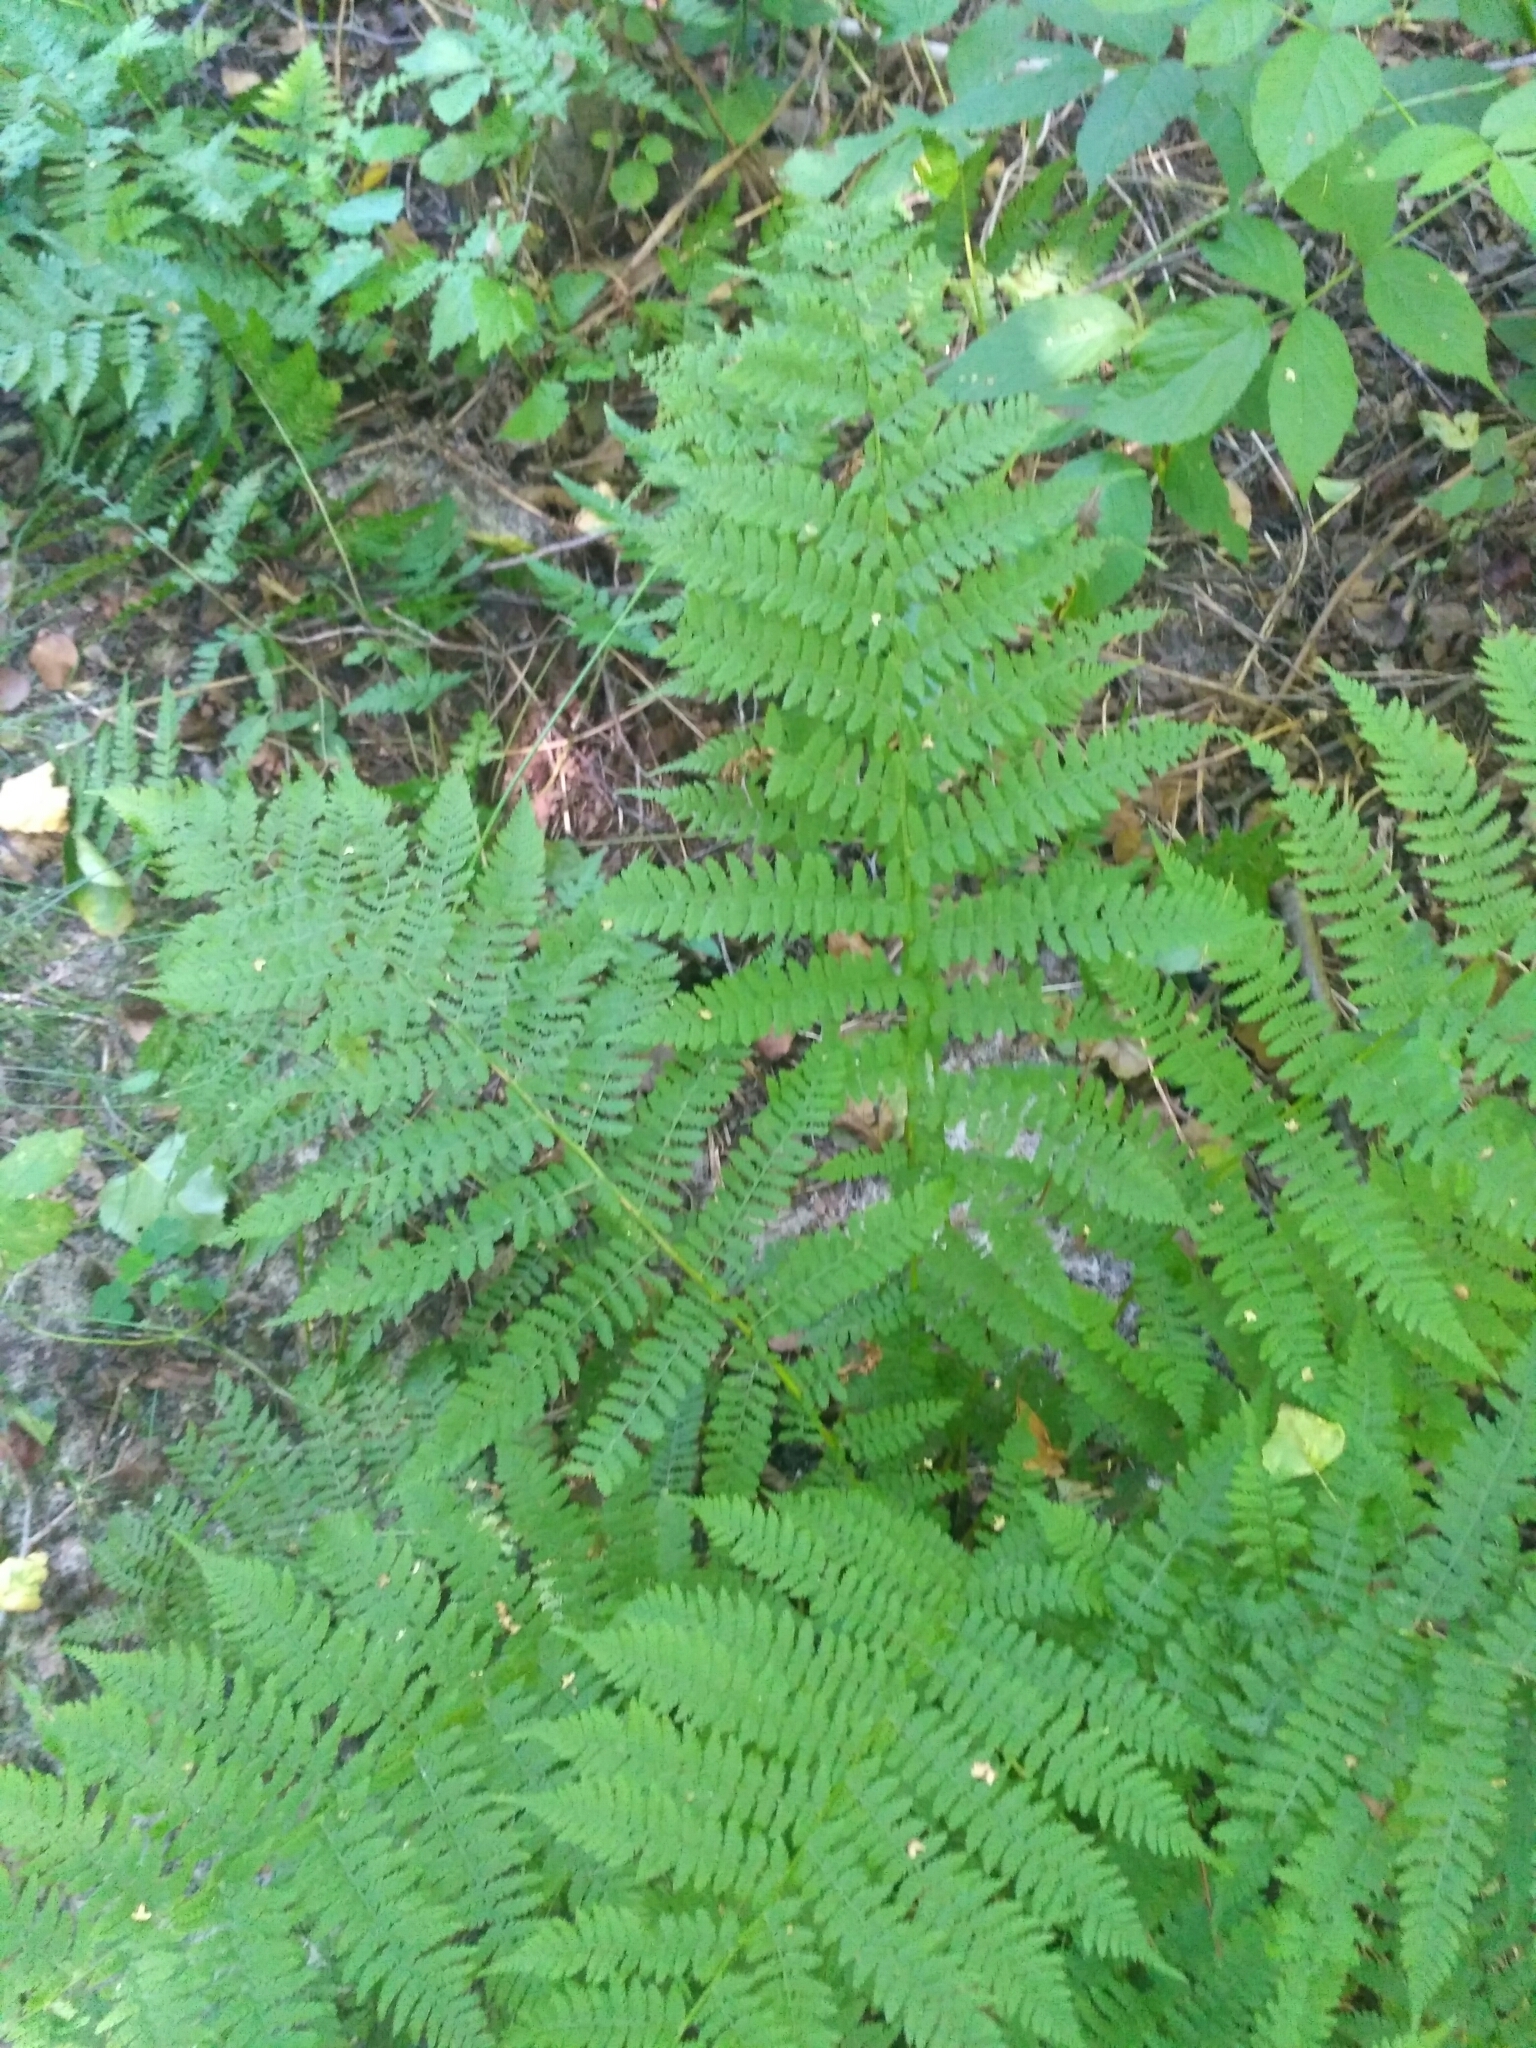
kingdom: Plantae
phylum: Tracheophyta
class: Polypodiopsida
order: Polypodiales
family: Athyriaceae
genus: Athyrium
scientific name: Athyrium filix-femina
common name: Lady fern
